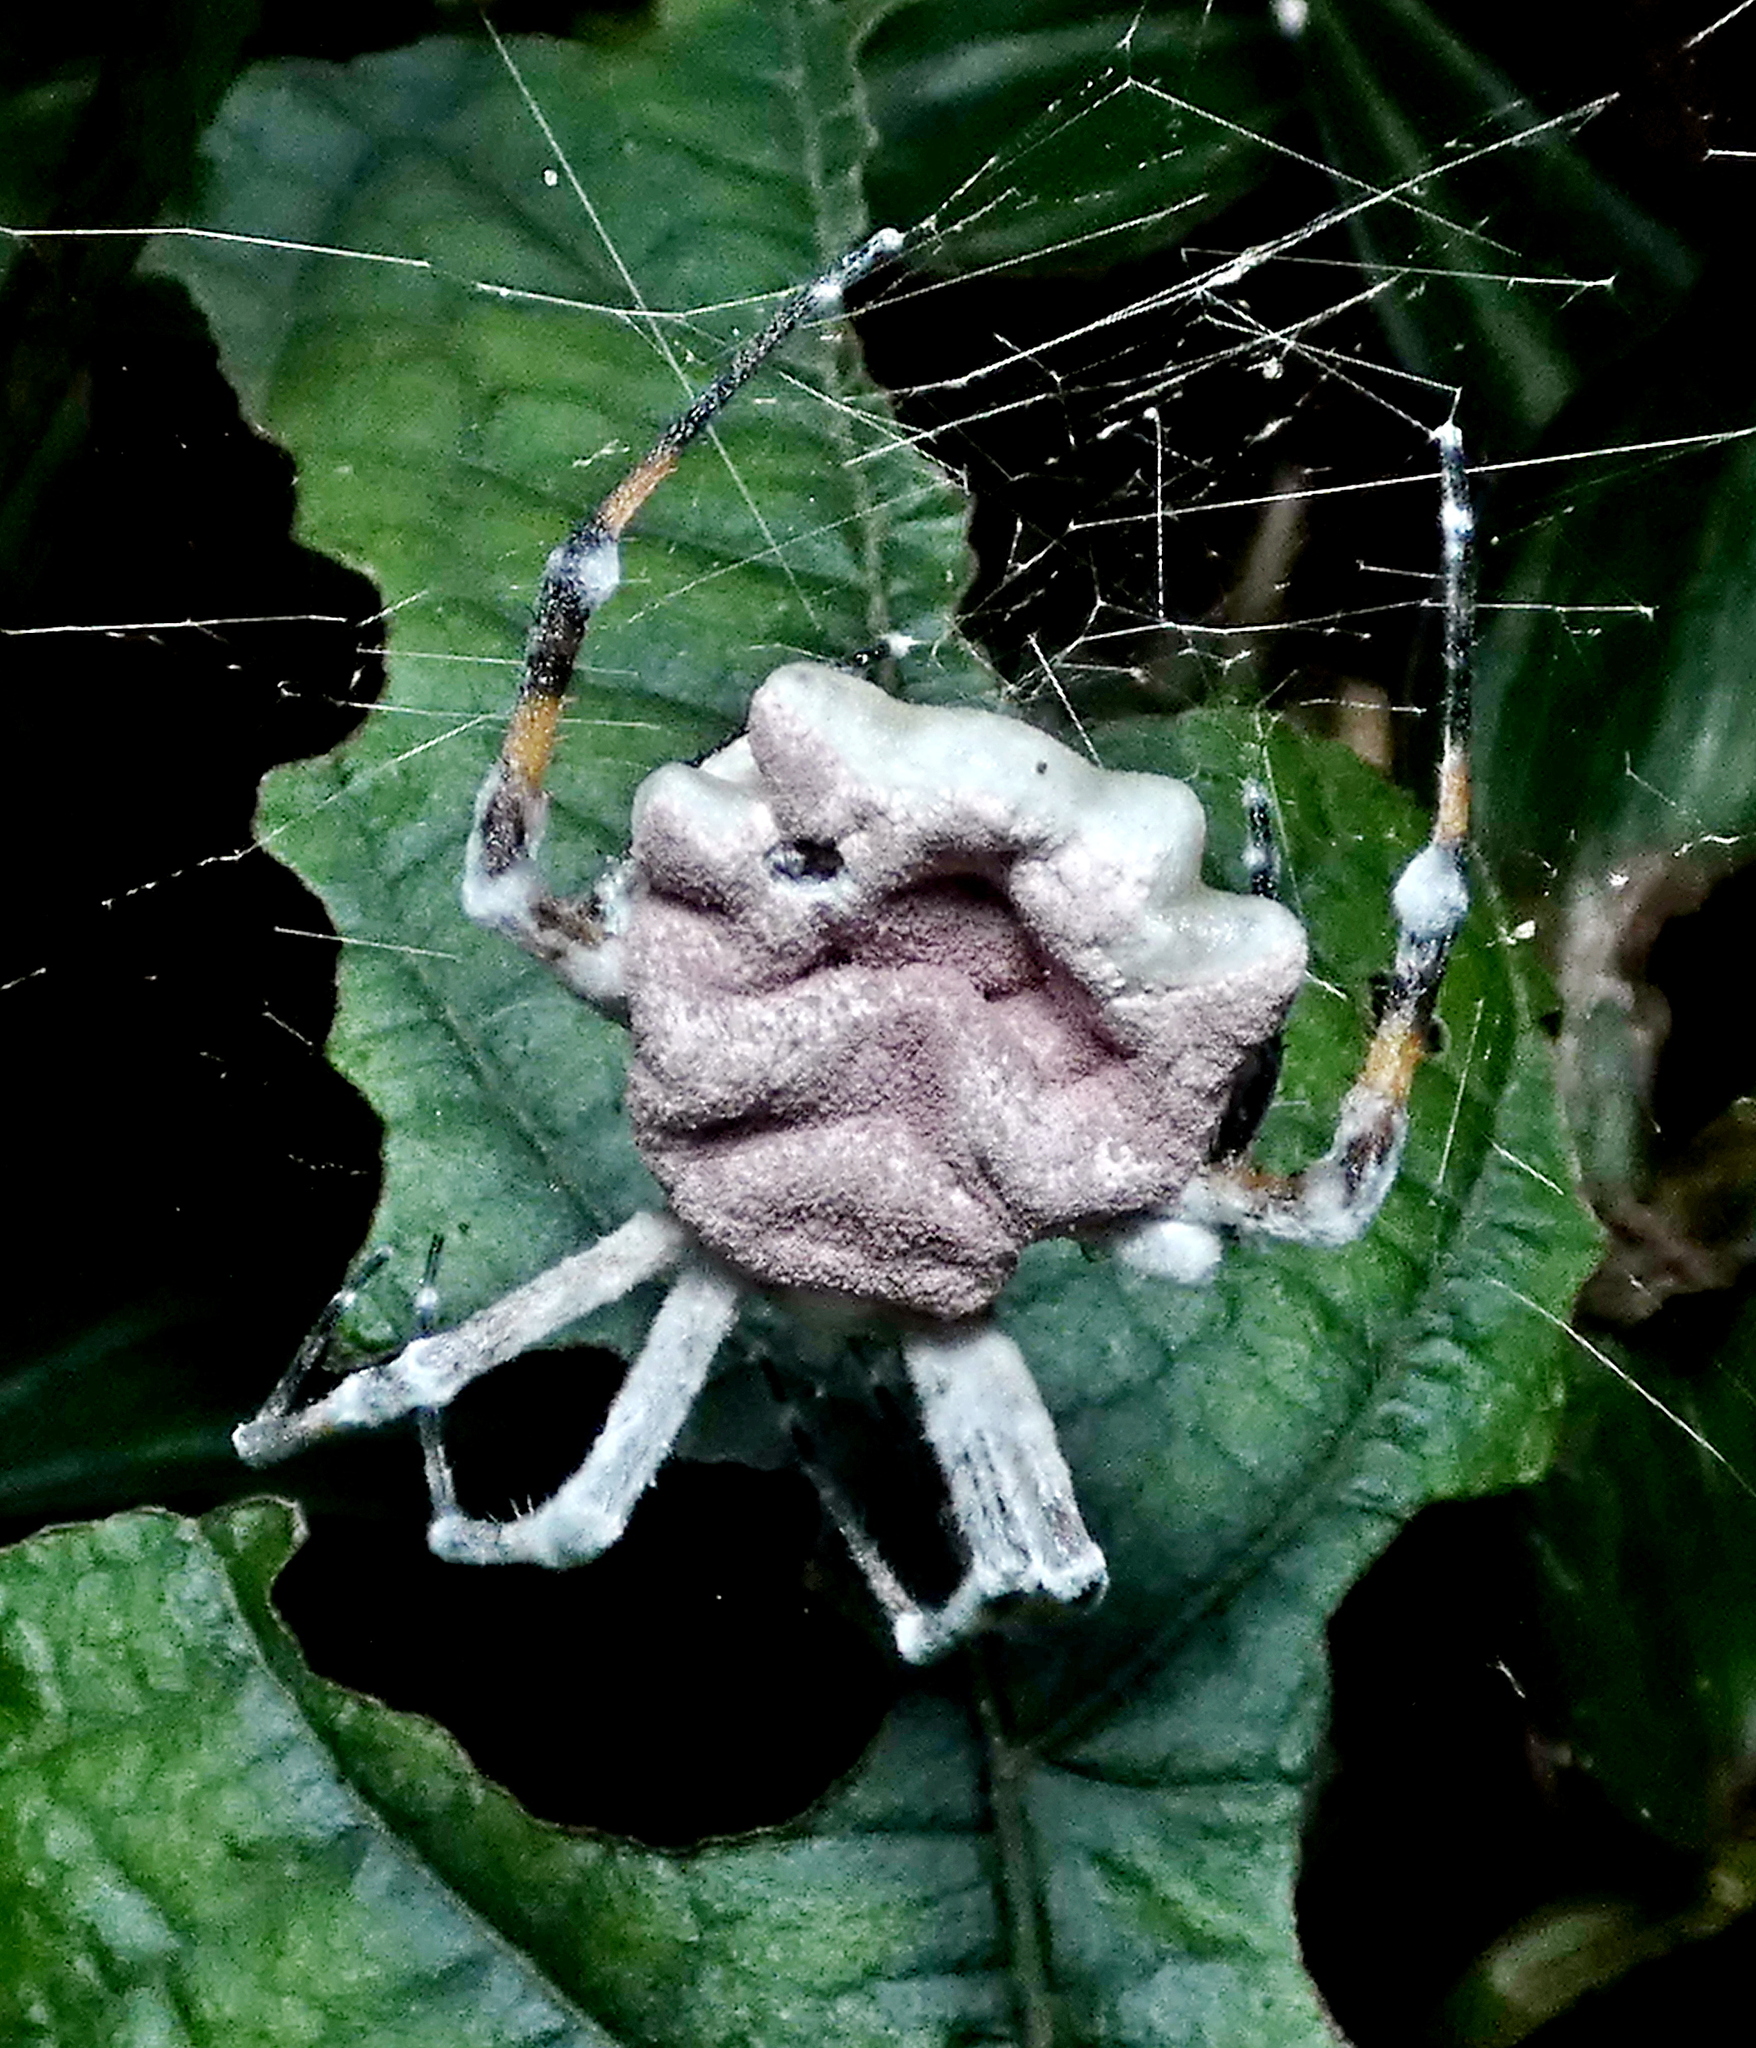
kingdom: Fungi
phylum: Ascomycota
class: Sordariomycetes
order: Hypocreales
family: Ophiocordycipitaceae
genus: Purpureocillium
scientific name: Purpureocillium atypicola
